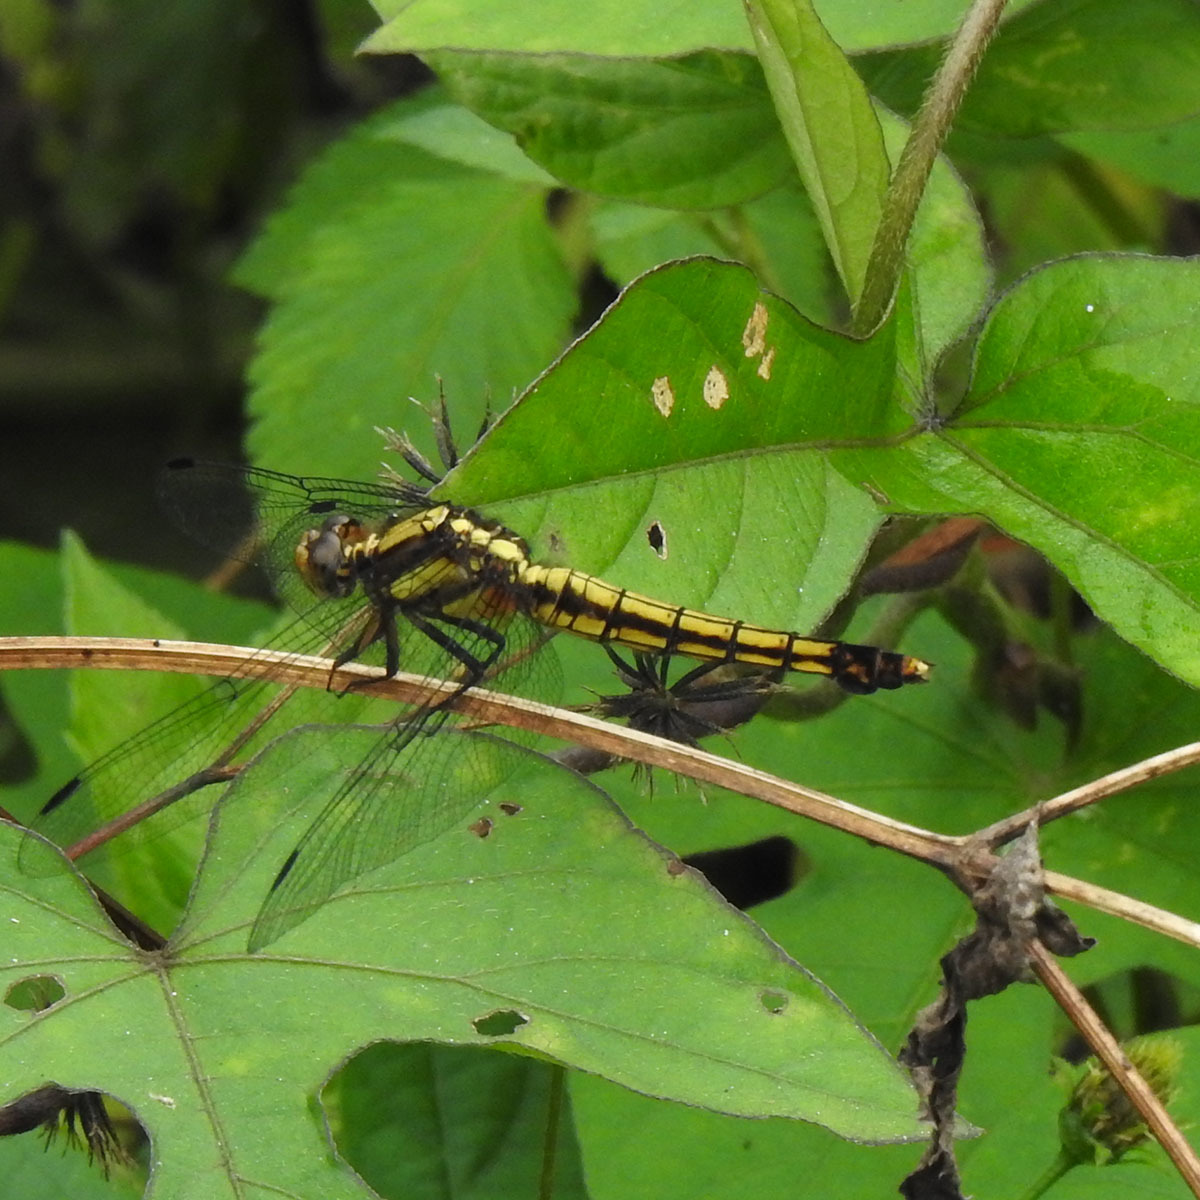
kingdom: Animalia
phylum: Arthropoda
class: Insecta
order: Odonata
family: Libellulidae
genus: Orthetrum
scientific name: Orthetrum triangulare
